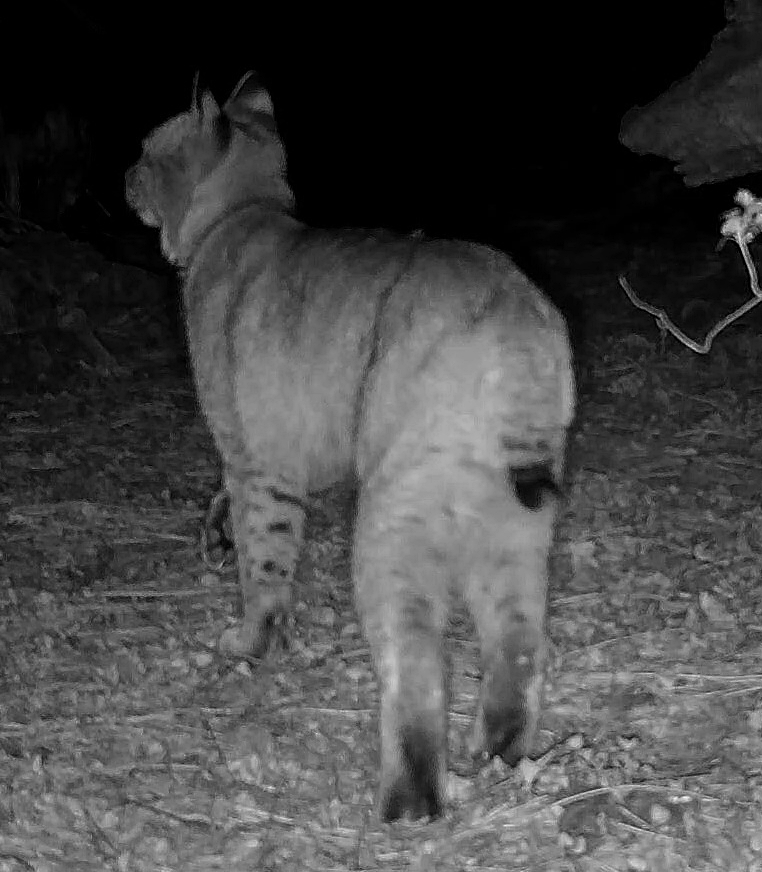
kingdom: Animalia
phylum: Chordata
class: Mammalia
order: Carnivora
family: Felidae
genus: Lynx
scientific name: Lynx rufus
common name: Bobcat
